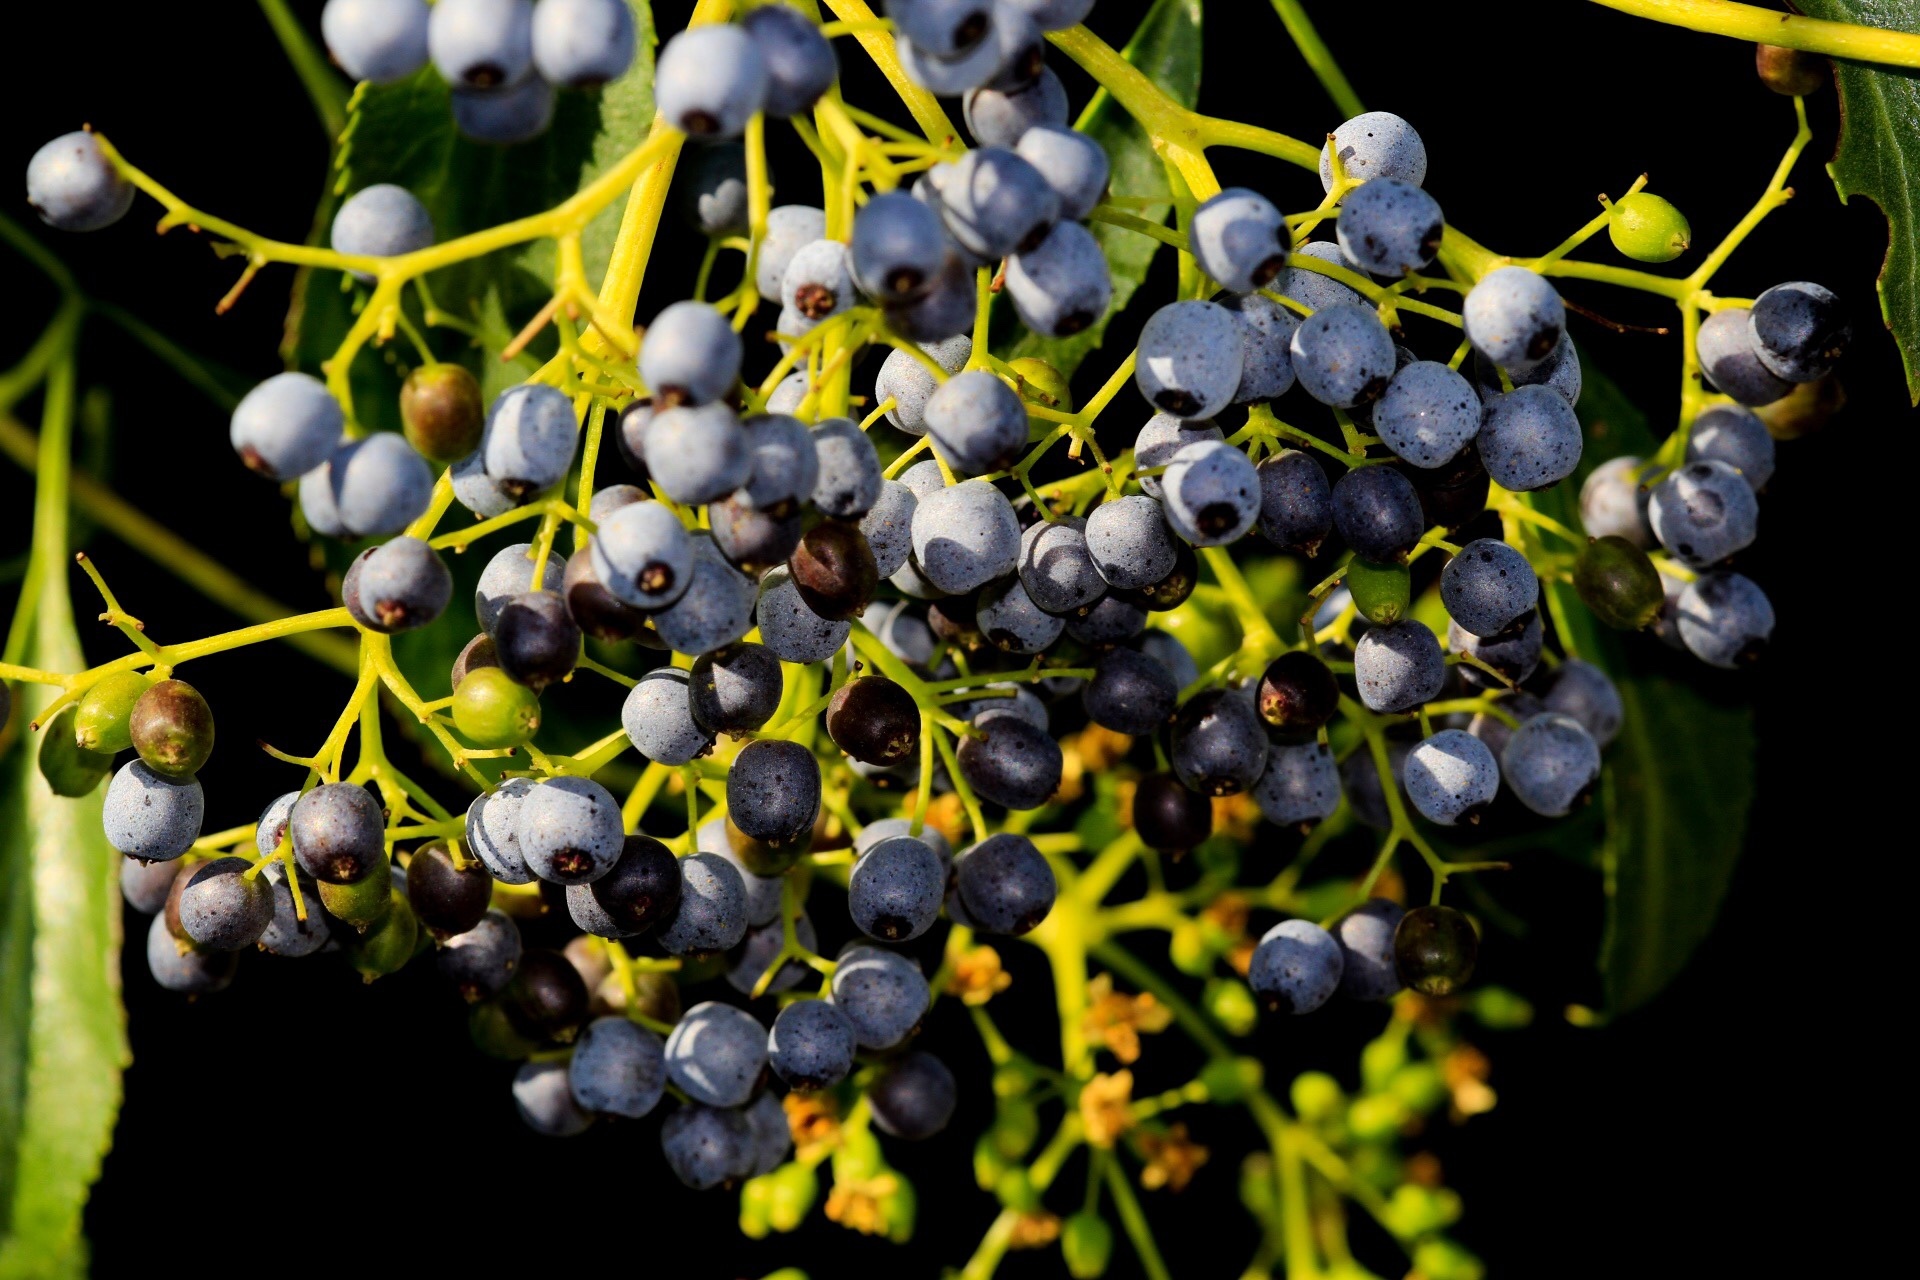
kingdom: Plantae
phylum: Tracheophyta
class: Magnoliopsida
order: Dipsacales
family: Viburnaceae
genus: Sambucus
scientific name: Sambucus cerulea
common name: Blue elder
